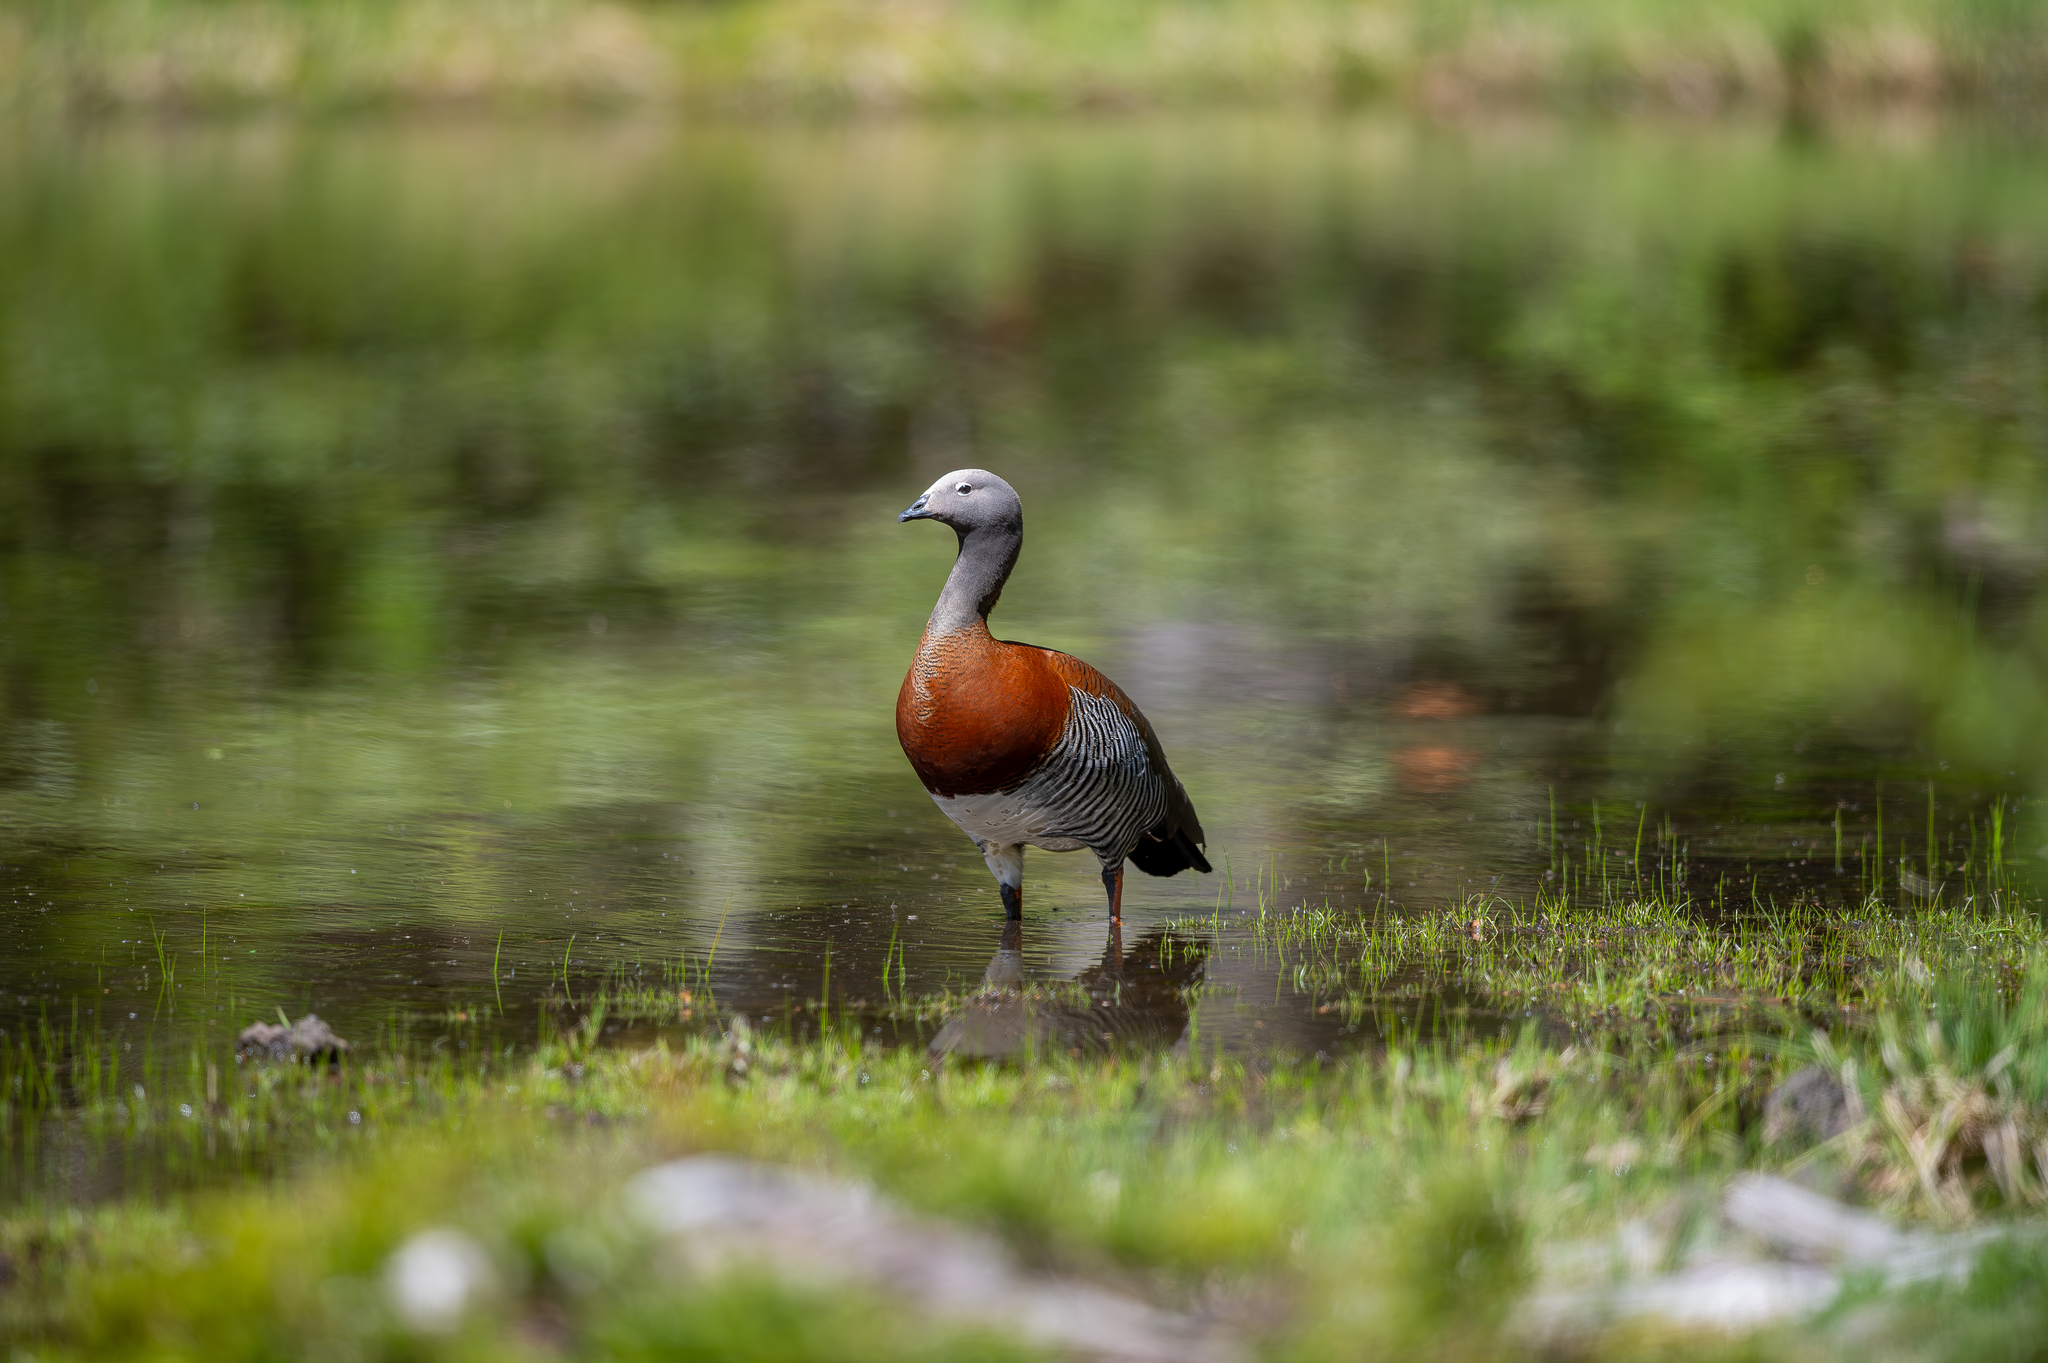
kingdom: Animalia
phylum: Chordata
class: Aves
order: Anseriformes
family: Anatidae
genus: Chloephaga
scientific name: Chloephaga poliocephala
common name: Ashy-headed goose
